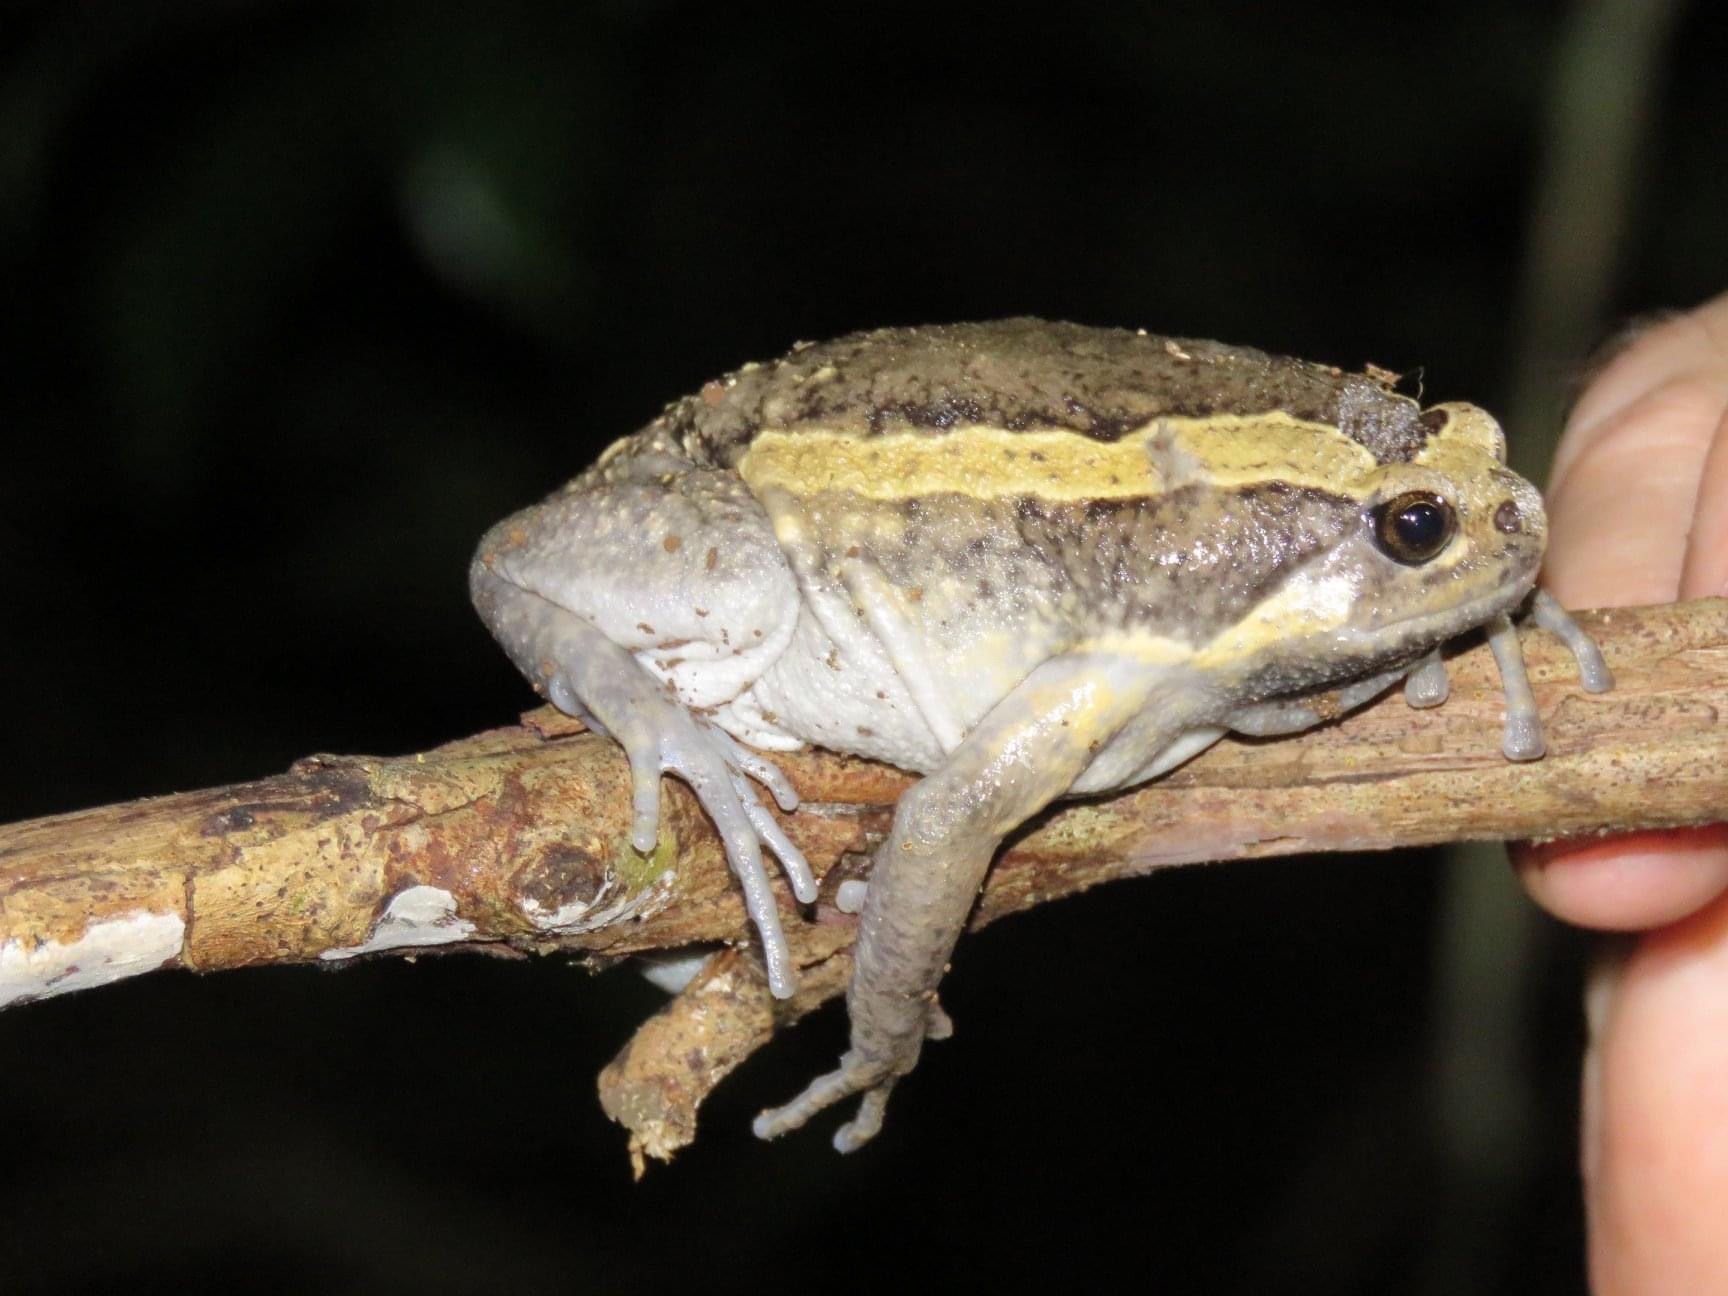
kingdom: Animalia
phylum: Chordata
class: Amphibia
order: Anura
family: Microhylidae
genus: Kaloula
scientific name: Kaloula pulchra
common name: Common,banded bullfrog
